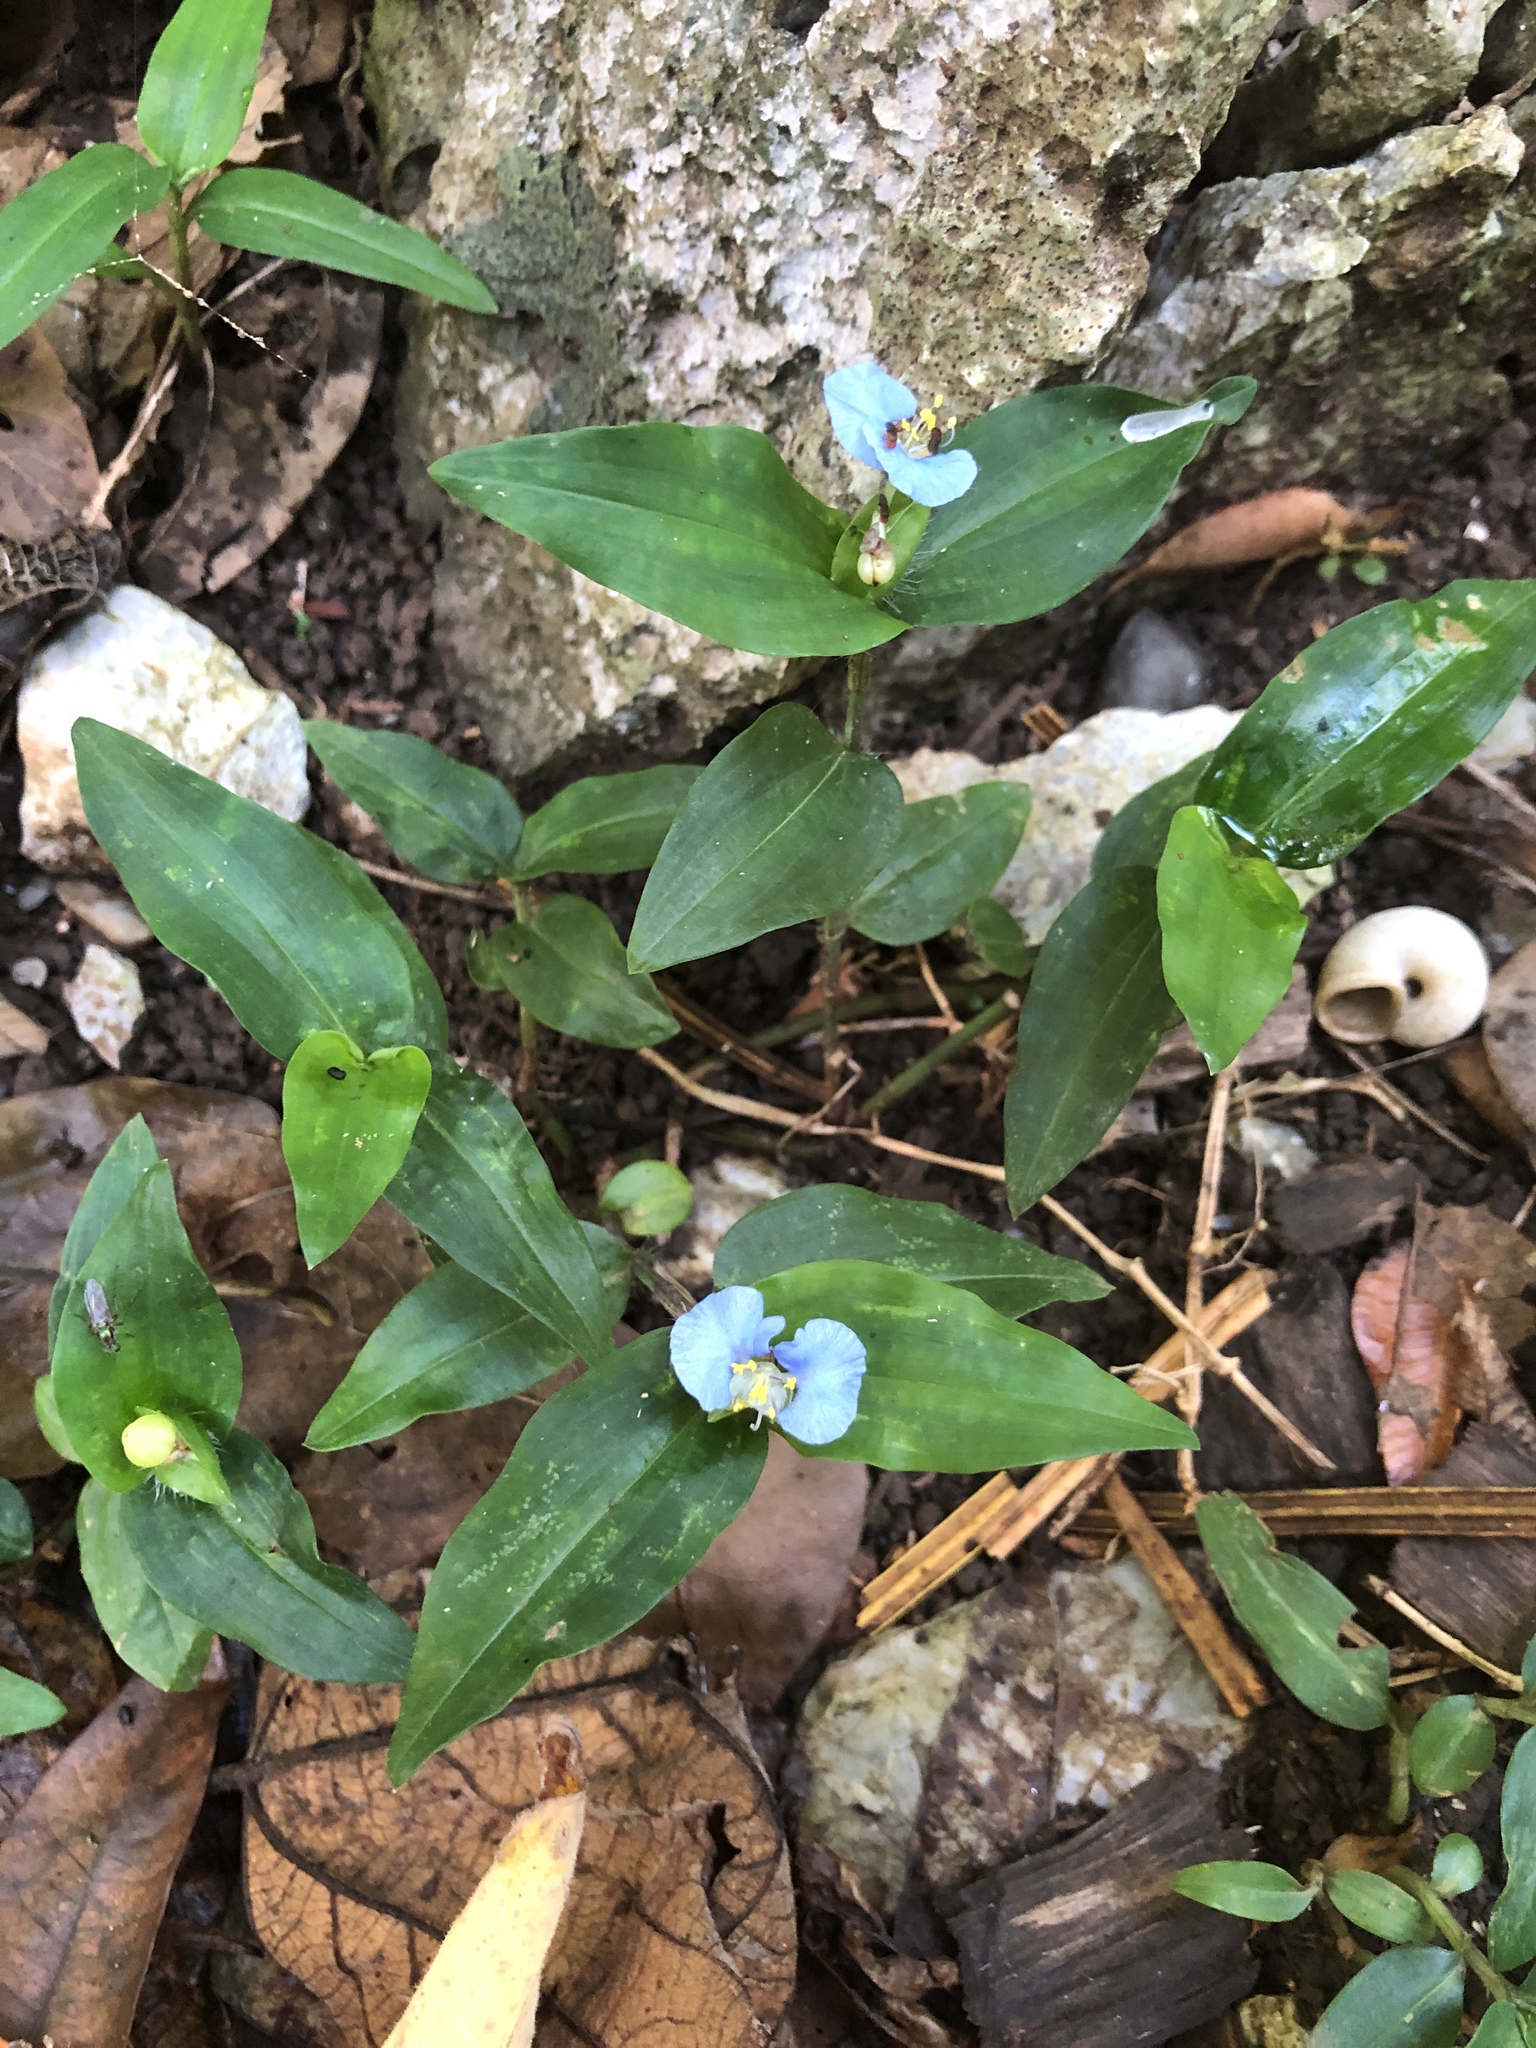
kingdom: Plantae
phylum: Tracheophyta
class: Liliopsida
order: Commelinales
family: Commelinaceae
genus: Commelina
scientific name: Commelina auriculata
